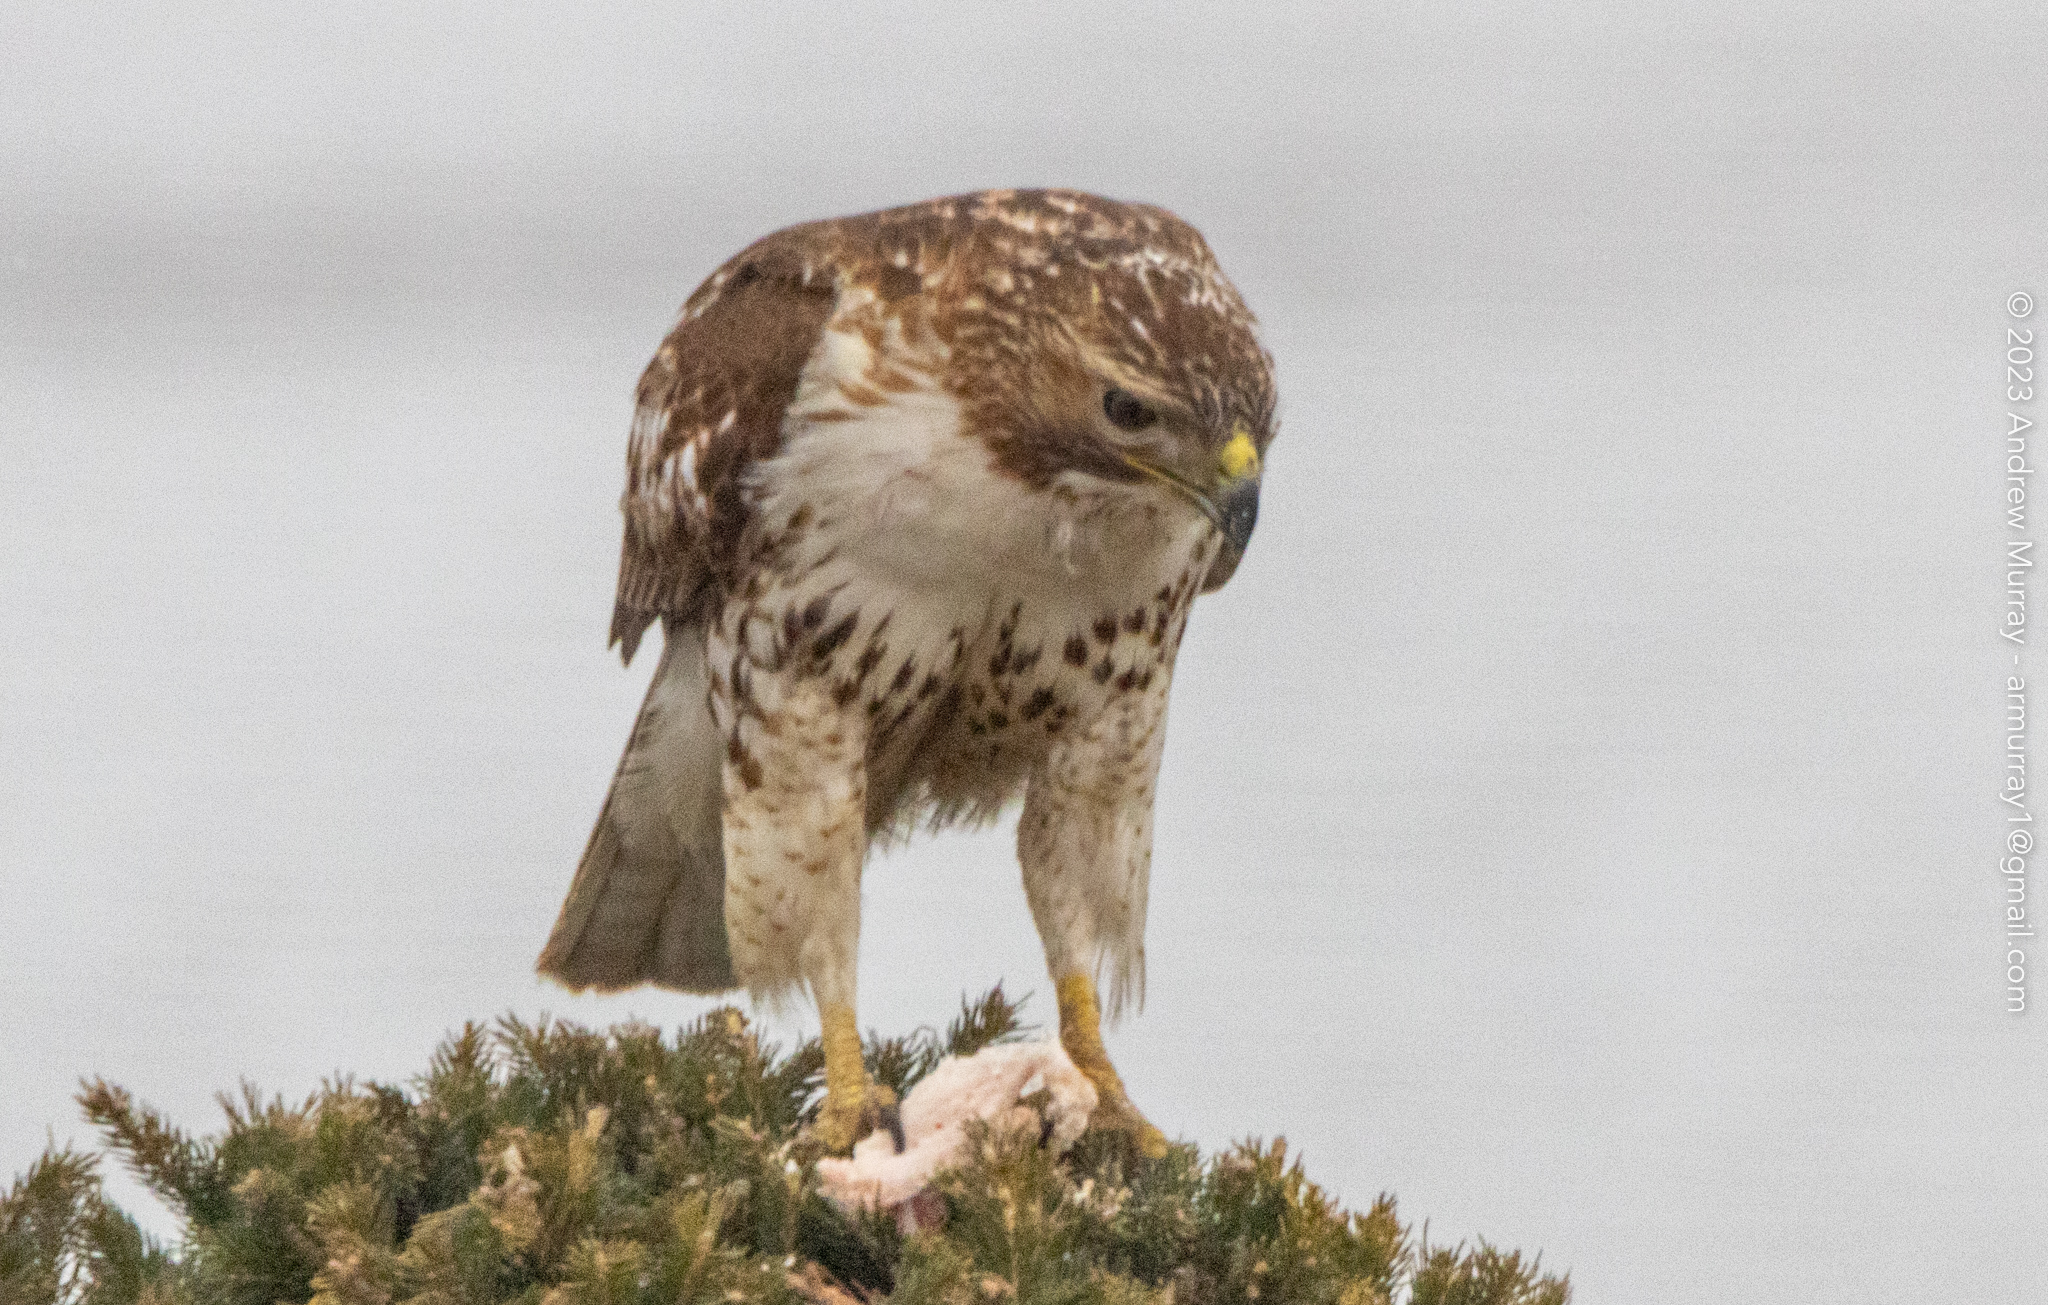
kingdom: Animalia
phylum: Chordata
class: Aves
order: Accipitriformes
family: Accipitridae
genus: Buteo
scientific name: Buteo jamaicensis
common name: Red-tailed hawk
